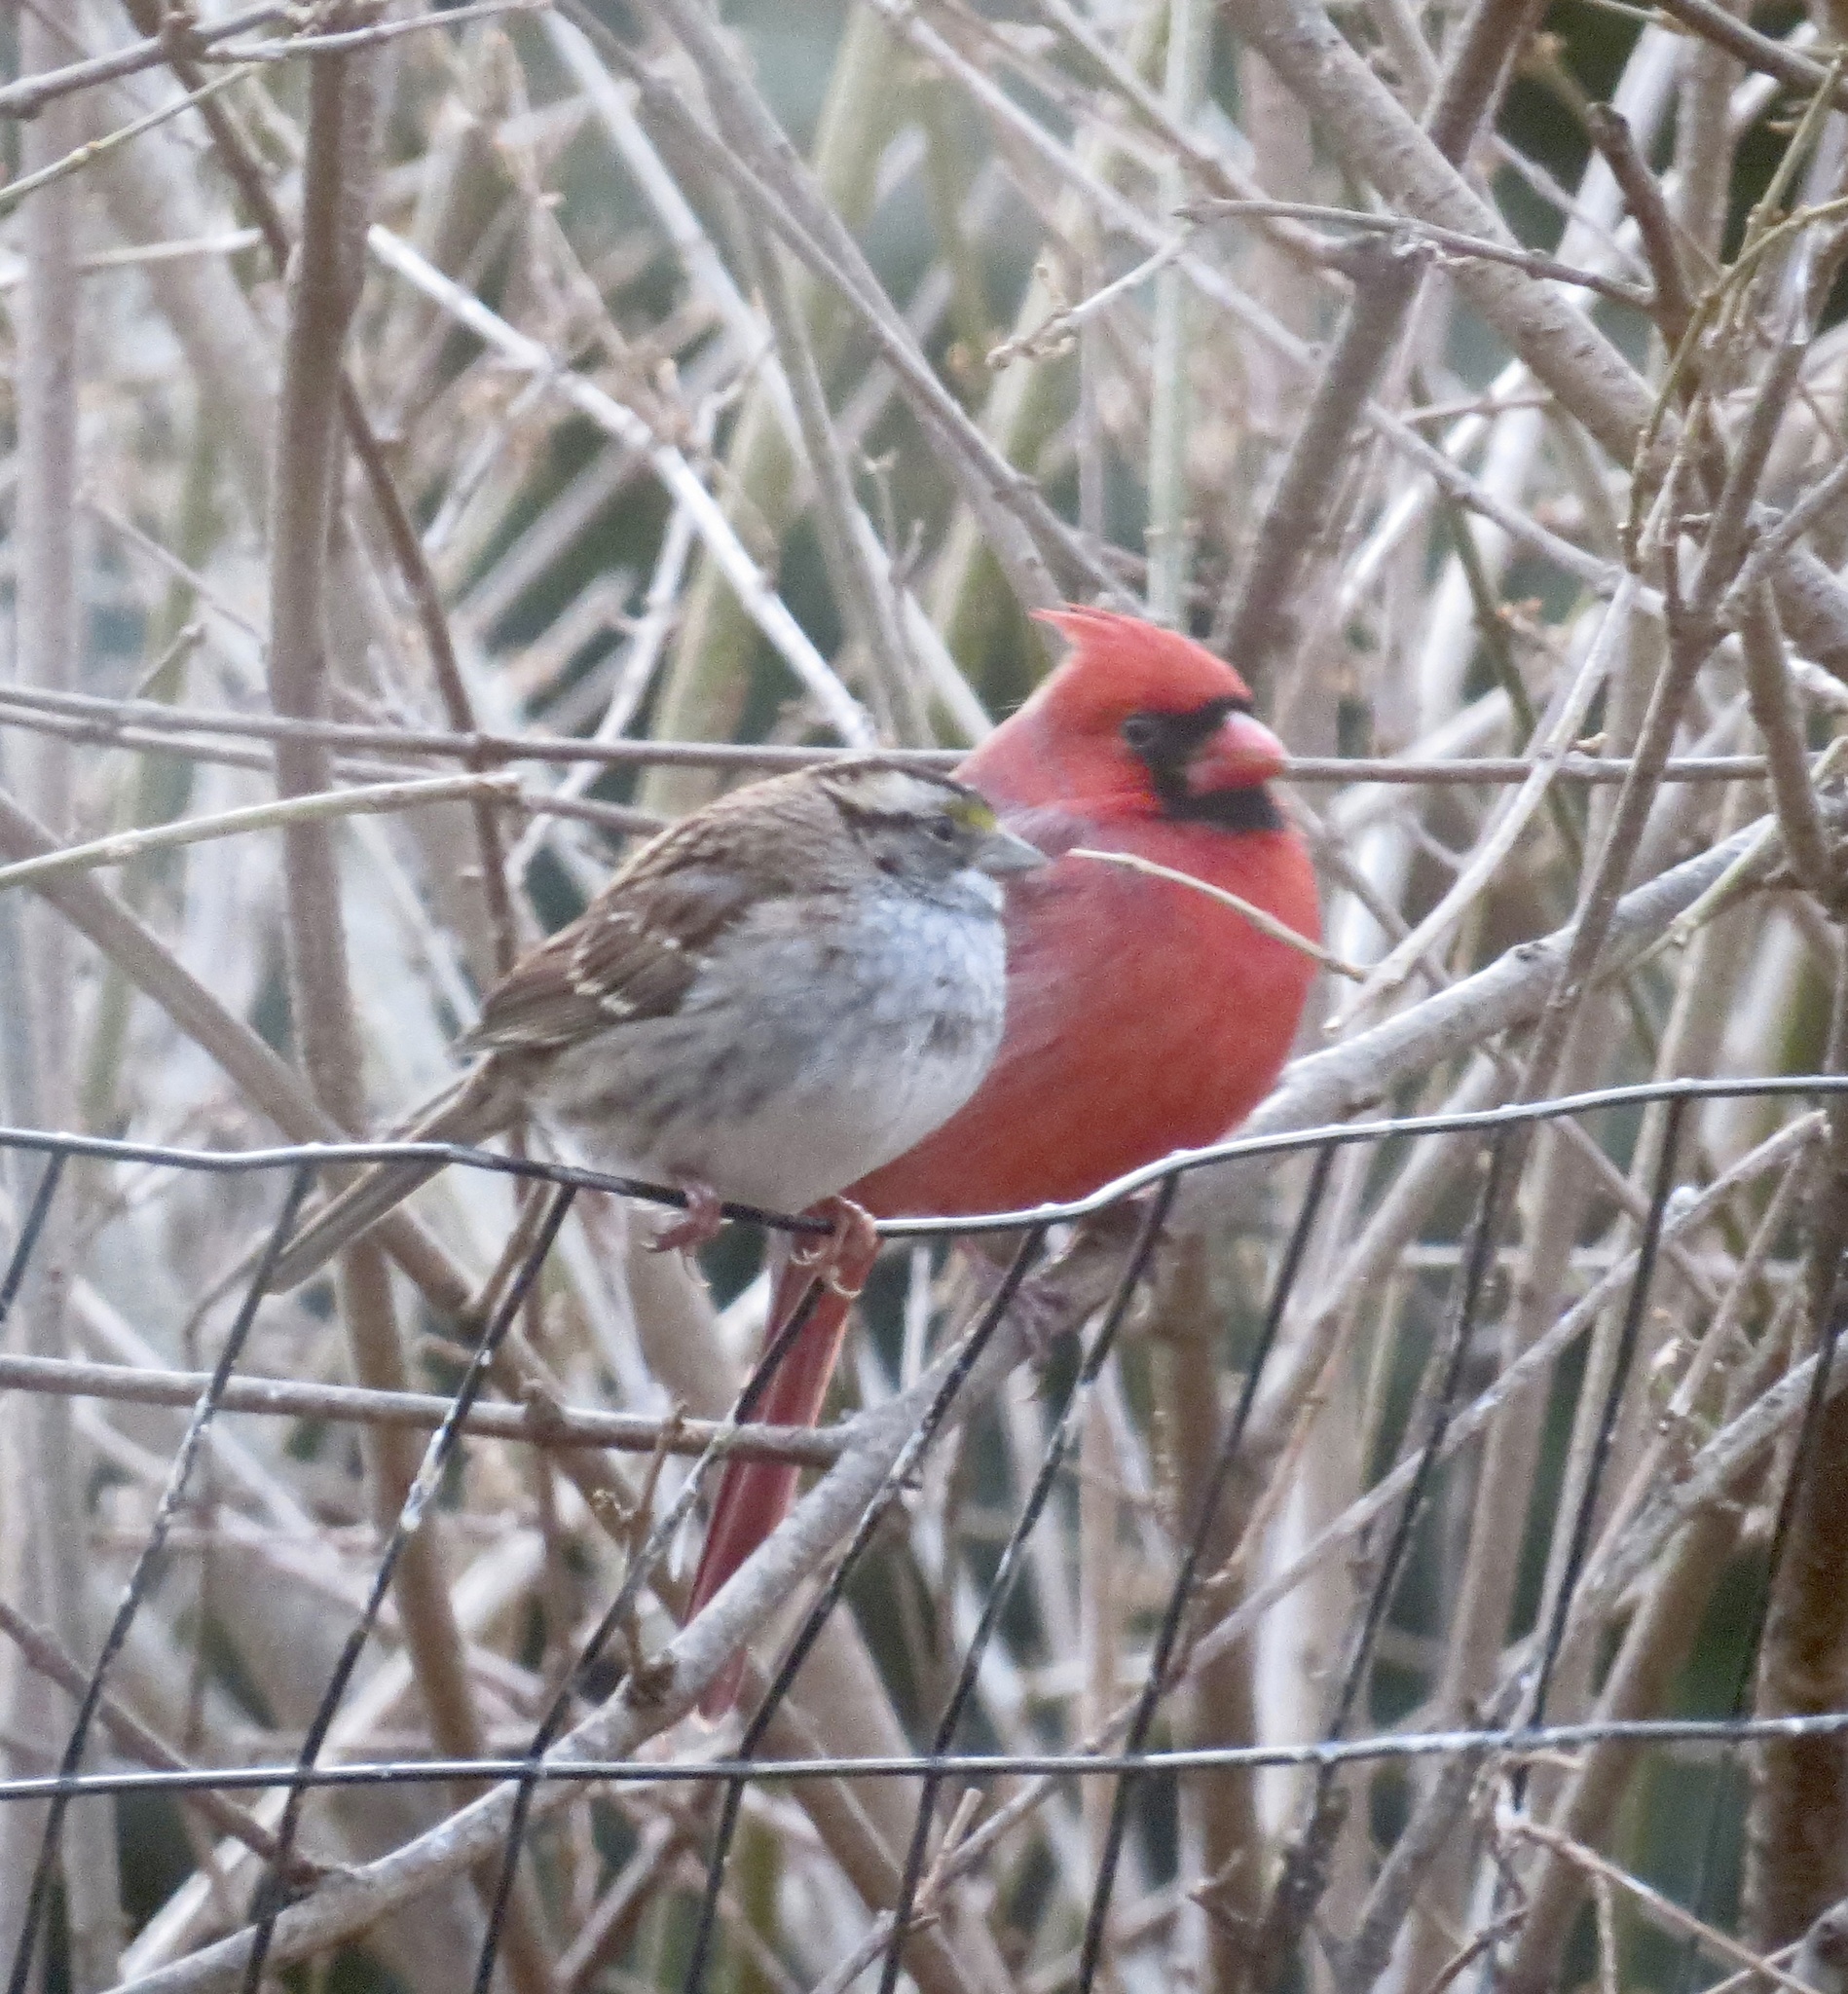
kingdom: Animalia
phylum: Chordata
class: Aves
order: Passeriformes
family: Cardinalidae
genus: Cardinalis
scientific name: Cardinalis cardinalis
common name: Northern cardinal
